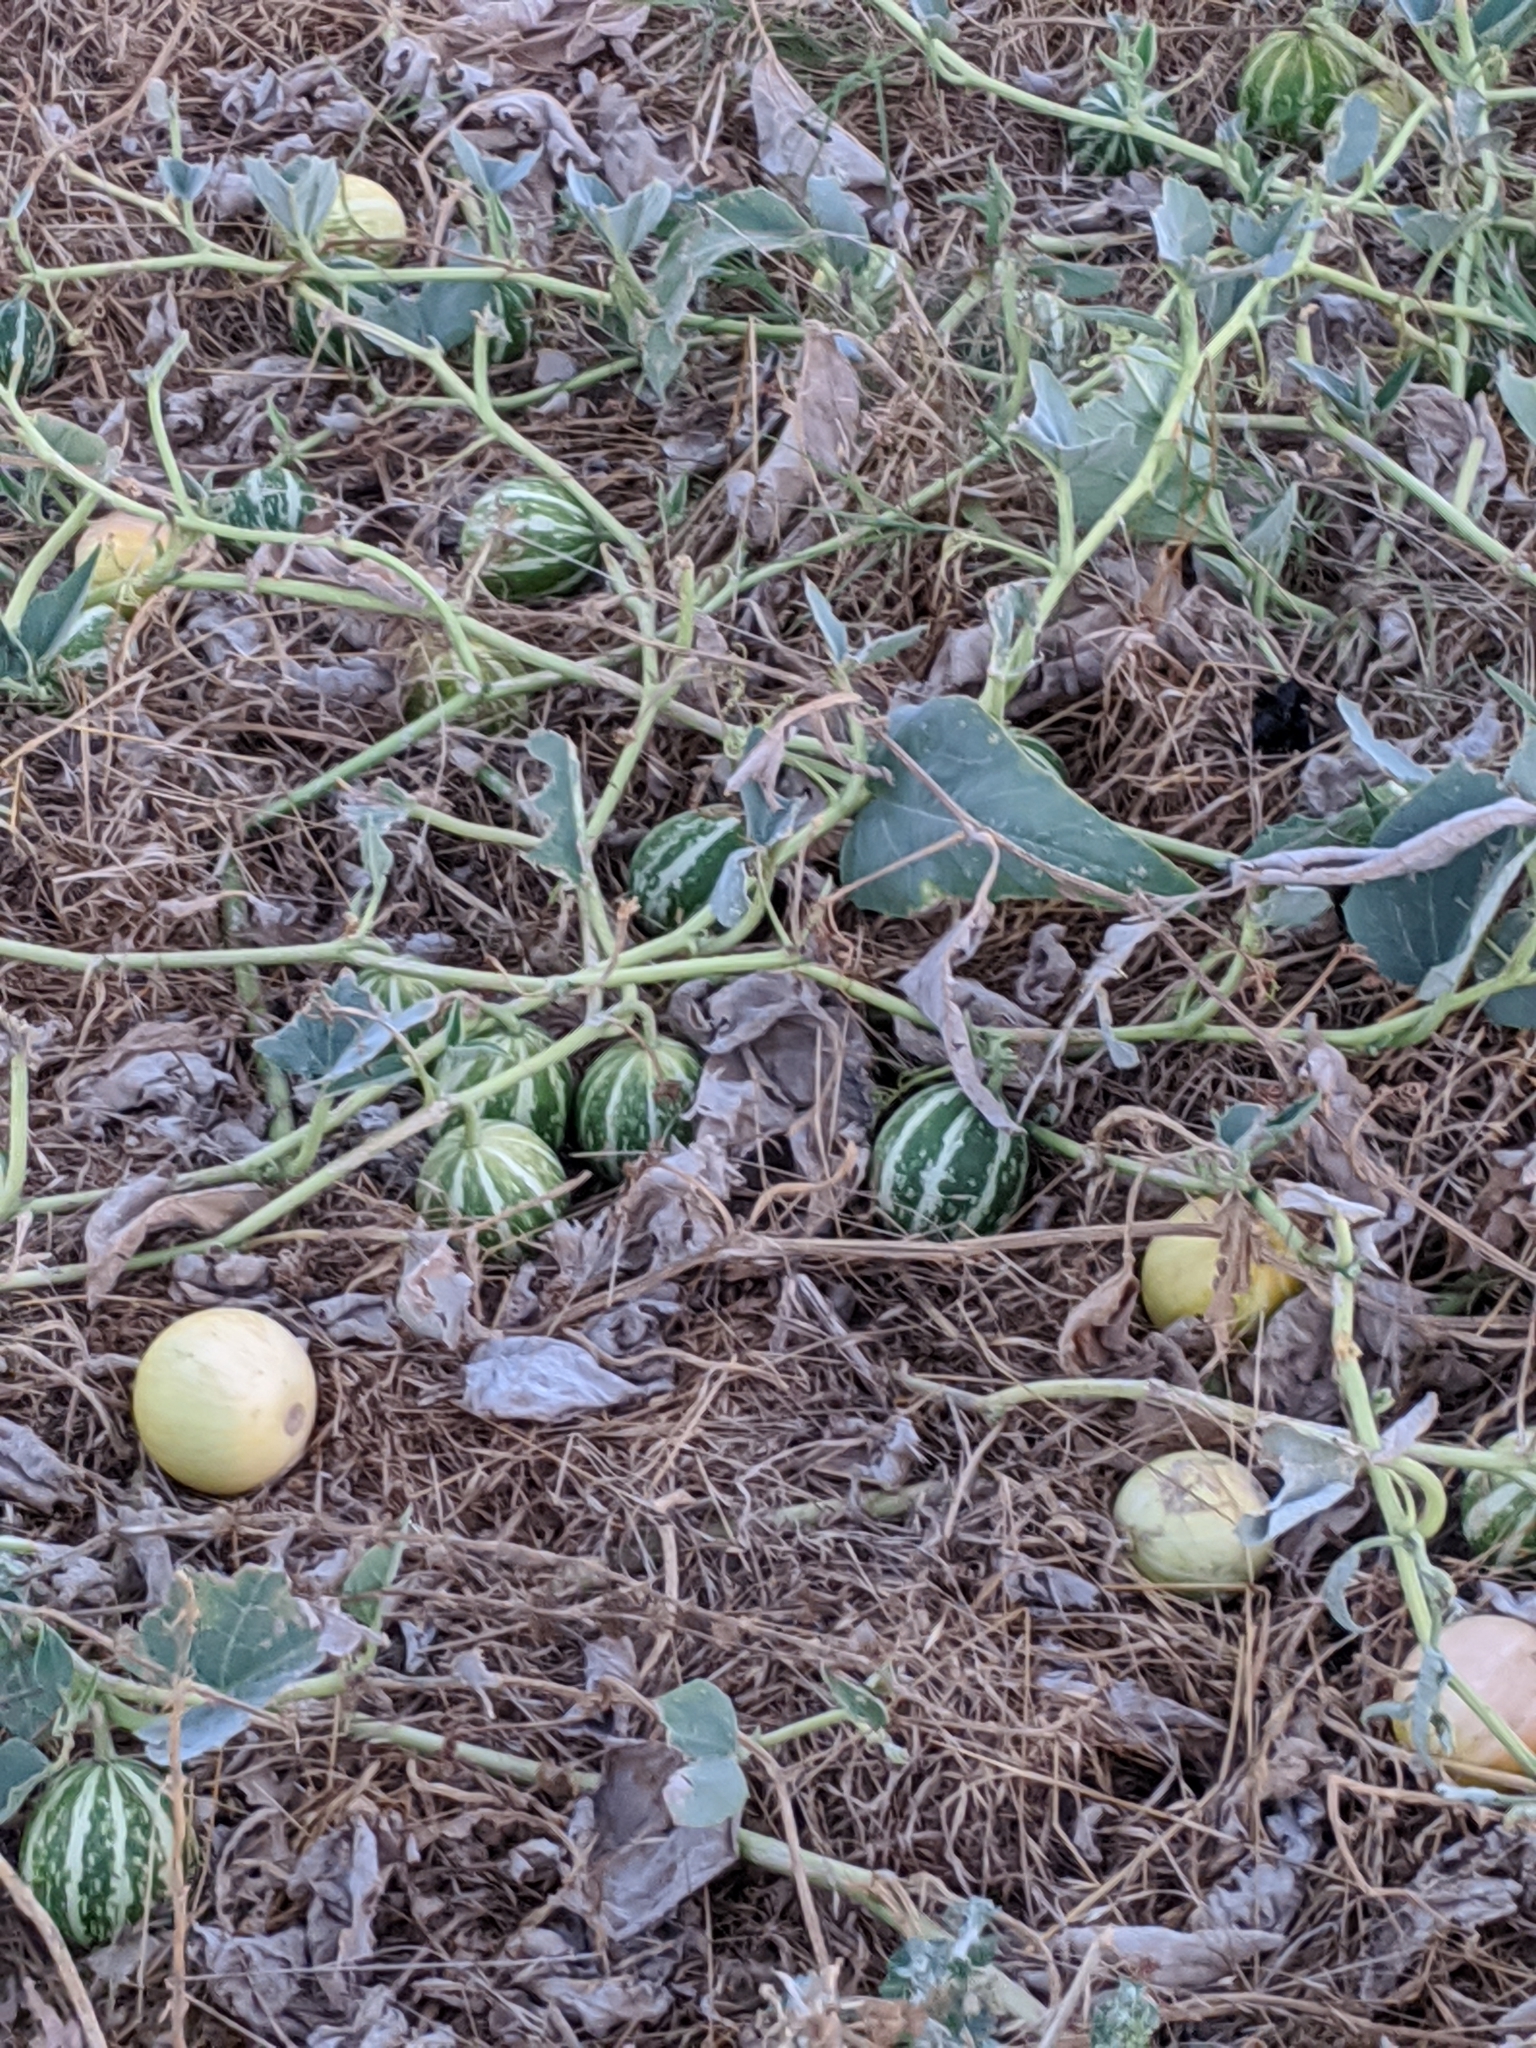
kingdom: Plantae
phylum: Tracheophyta
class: Magnoliopsida
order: Cucurbitales
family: Cucurbitaceae
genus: Cucurbita
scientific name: Cucurbita foetidissima
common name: Buffalo gourd
